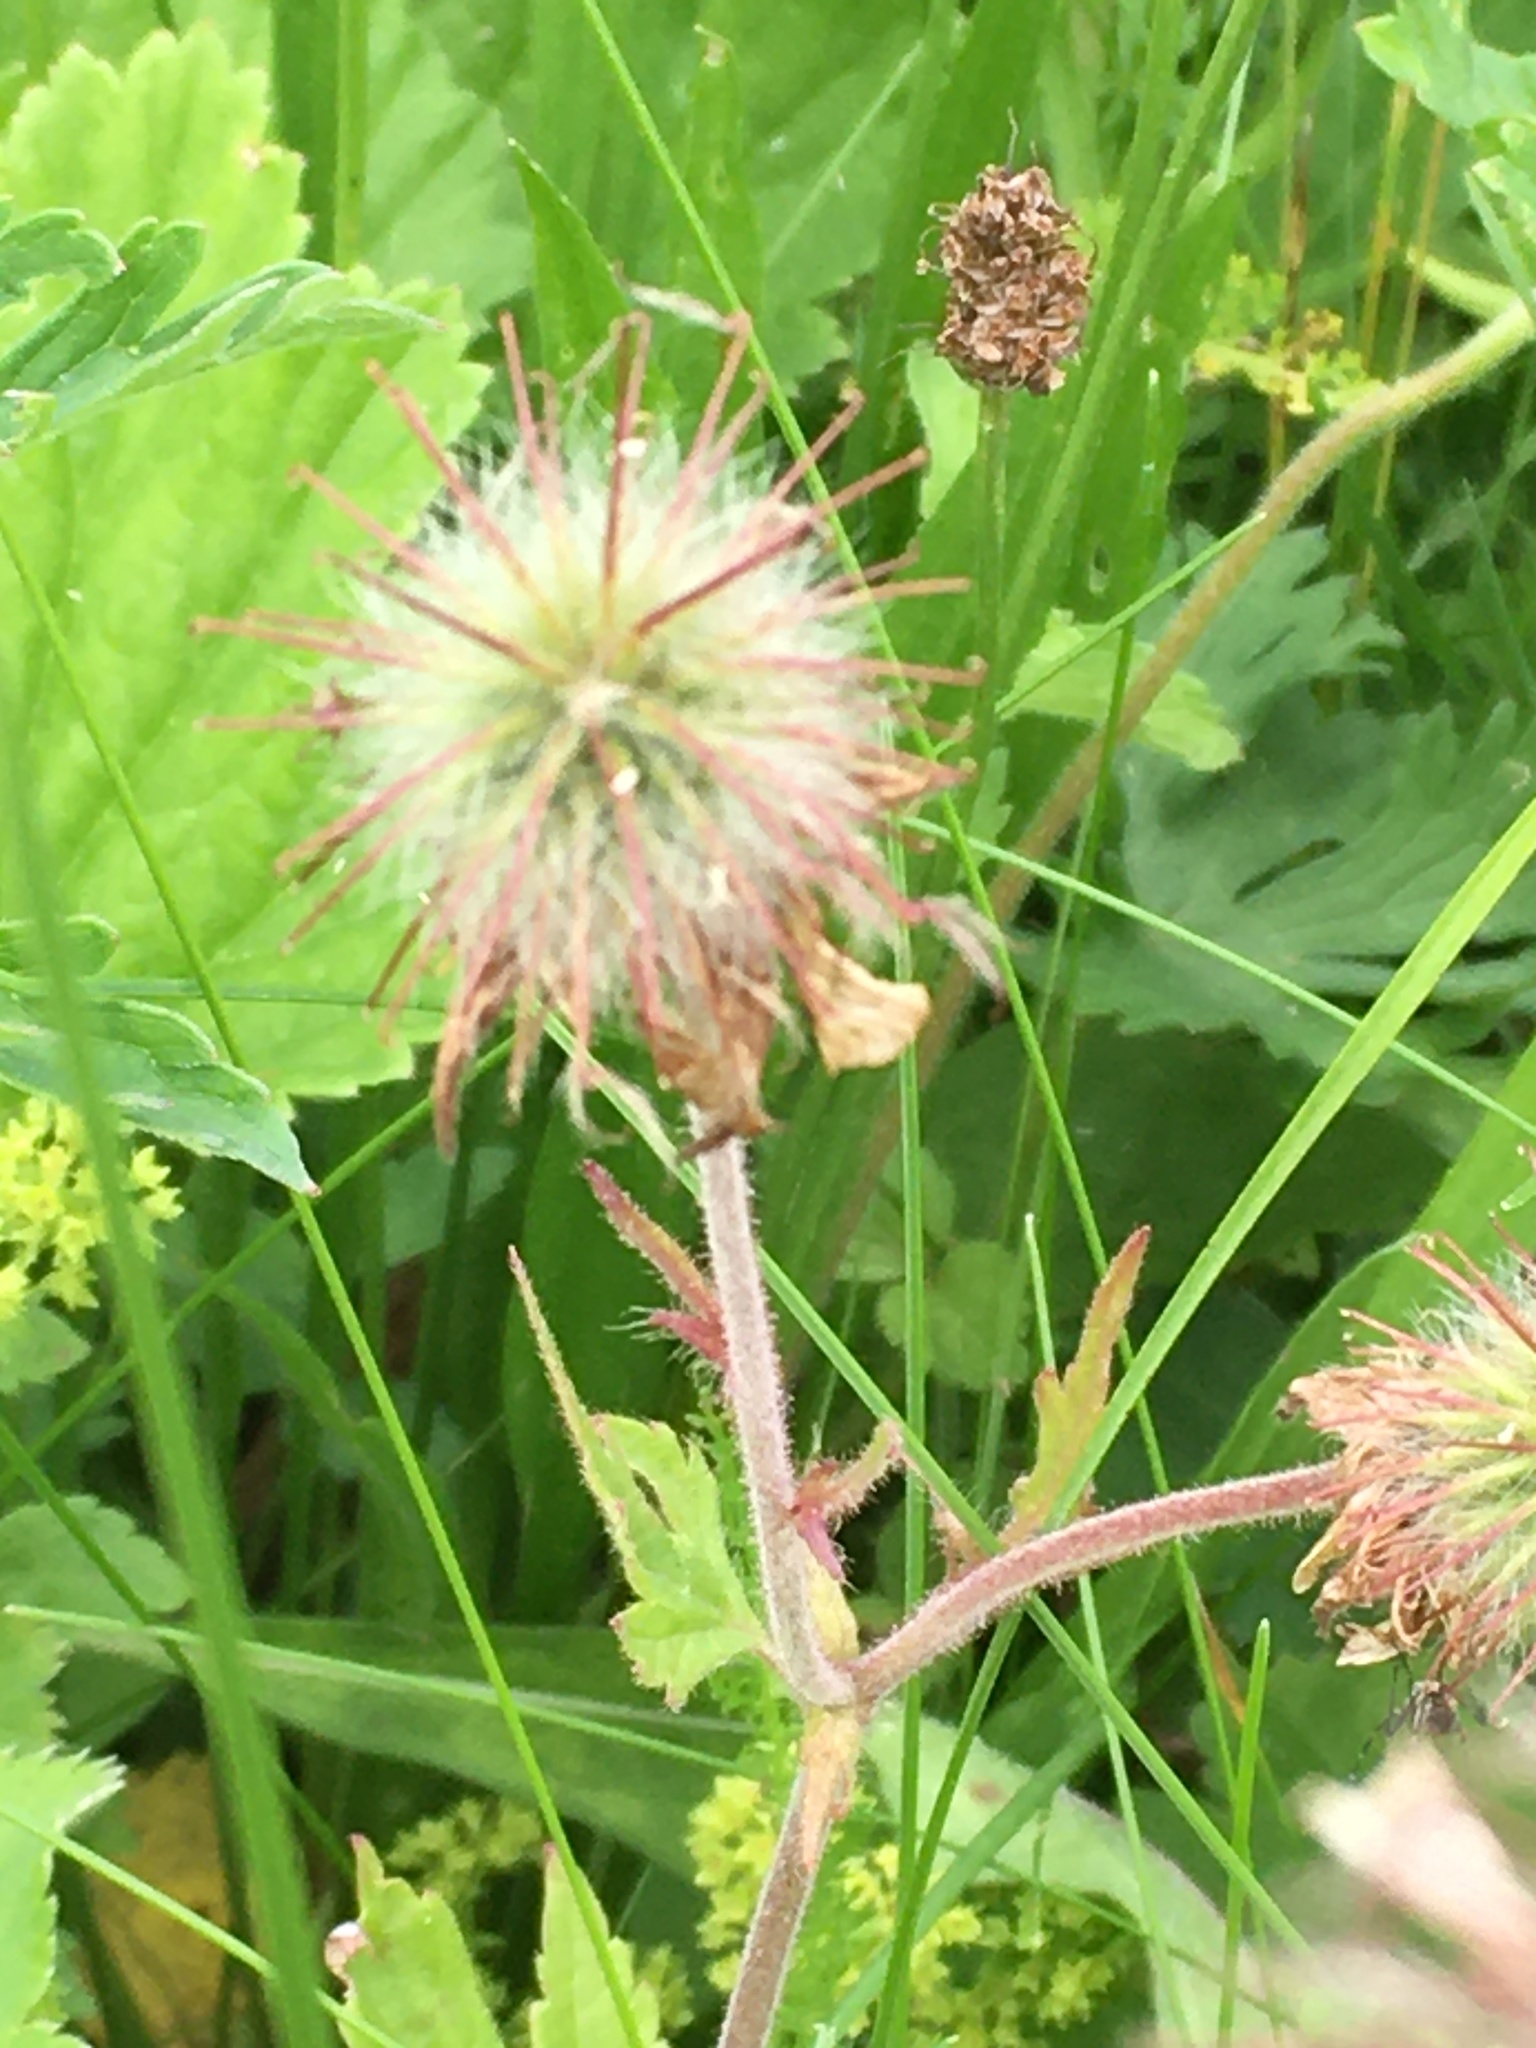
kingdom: Plantae
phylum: Tracheophyta
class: Magnoliopsida
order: Rosales
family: Rosaceae
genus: Geum
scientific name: Geum rivale
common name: Water avens
